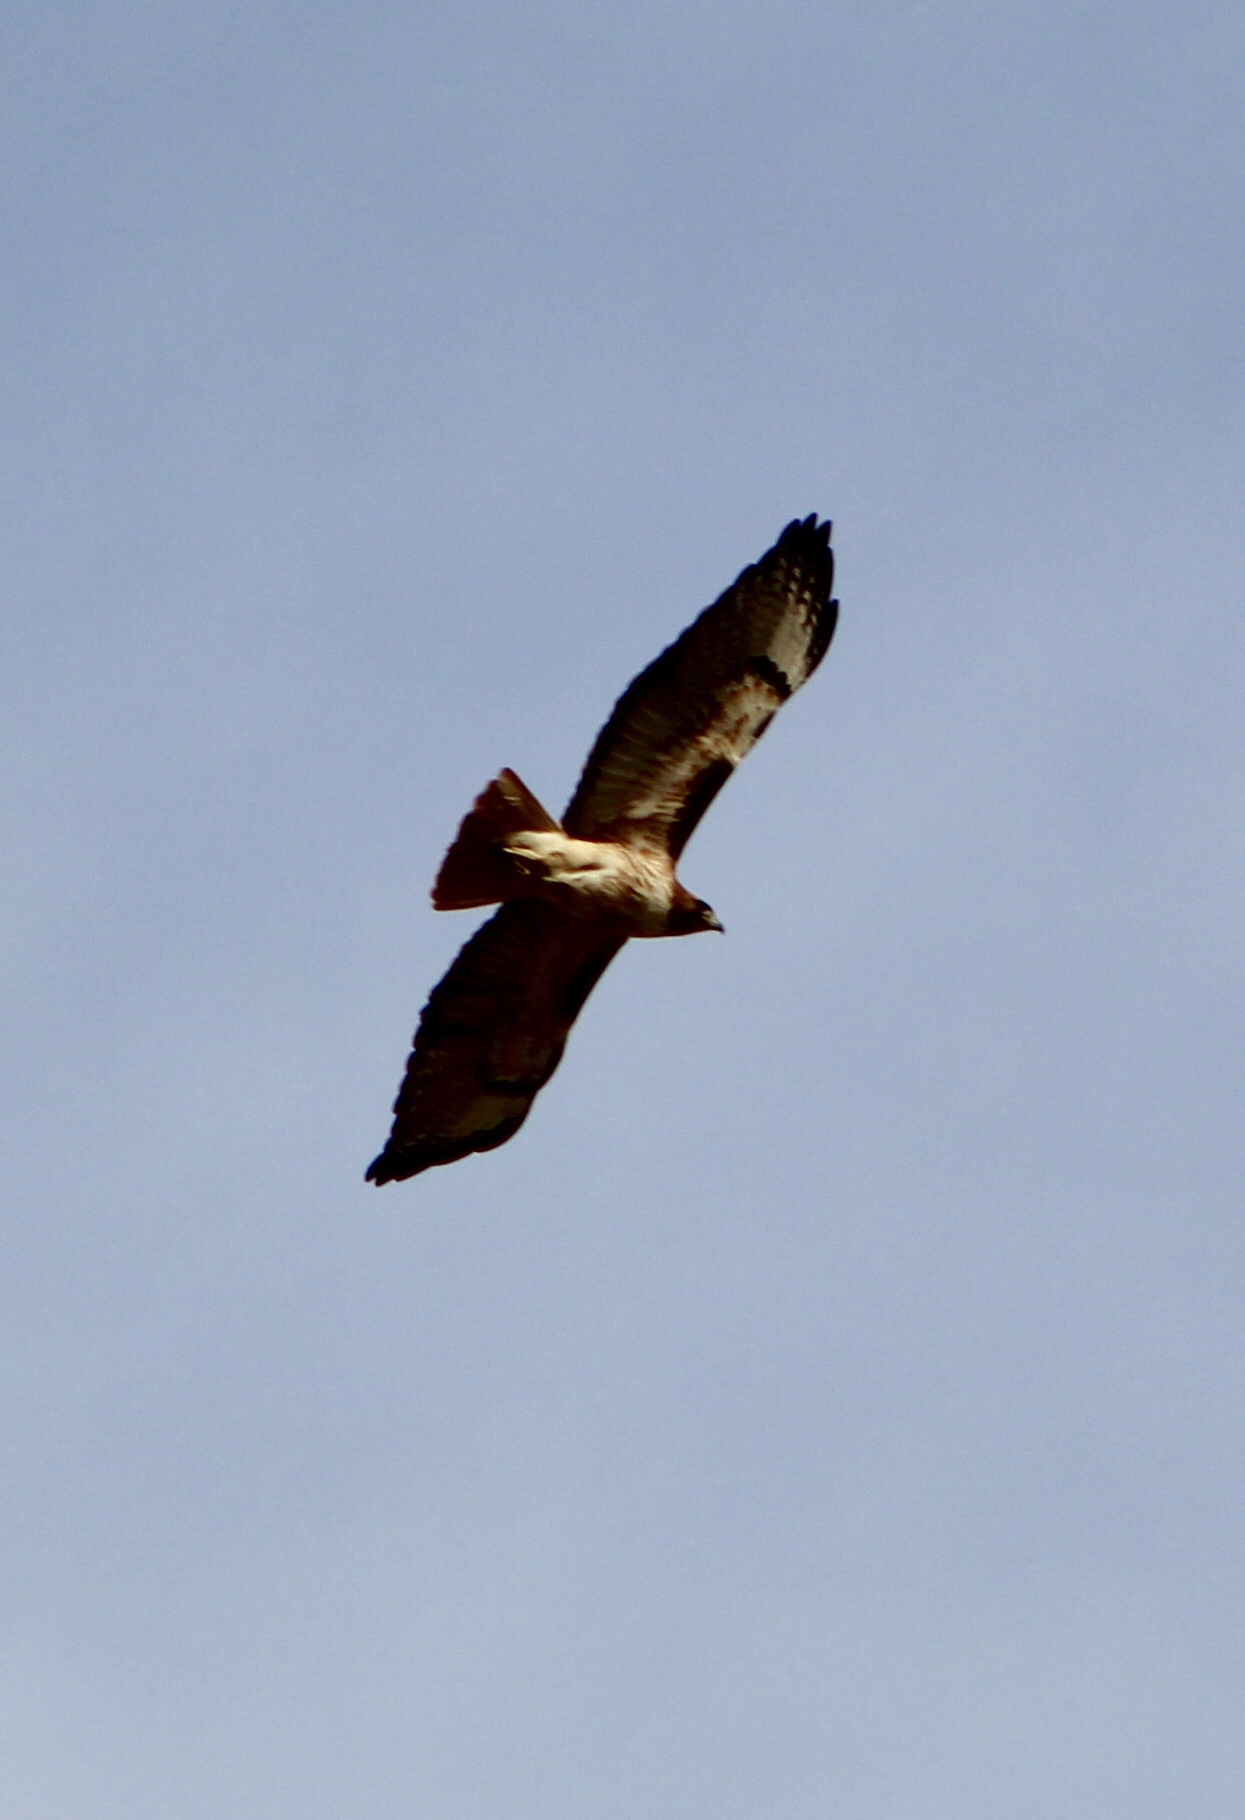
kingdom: Animalia
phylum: Chordata
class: Aves
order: Accipitriformes
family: Accipitridae
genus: Buteo
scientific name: Buteo jamaicensis
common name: Red-tailed hawk
